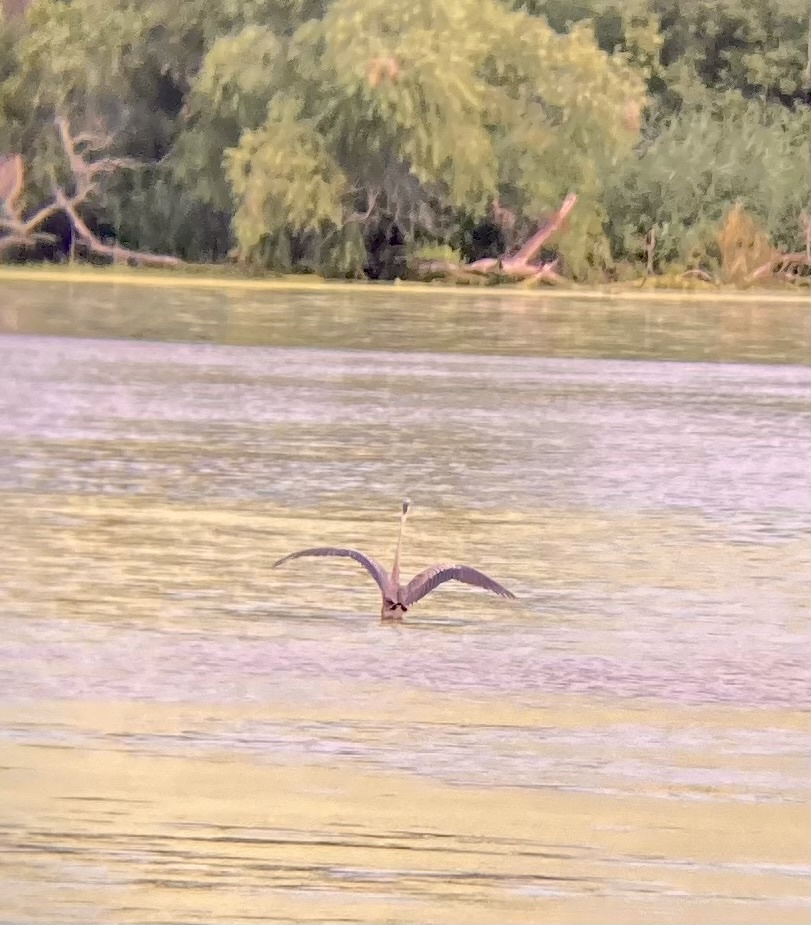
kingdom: Animalia
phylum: Chordata
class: Aves
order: Pelecaniformes
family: Ardeidae
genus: Ardea
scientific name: Ardea herodias
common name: Great blue heron
